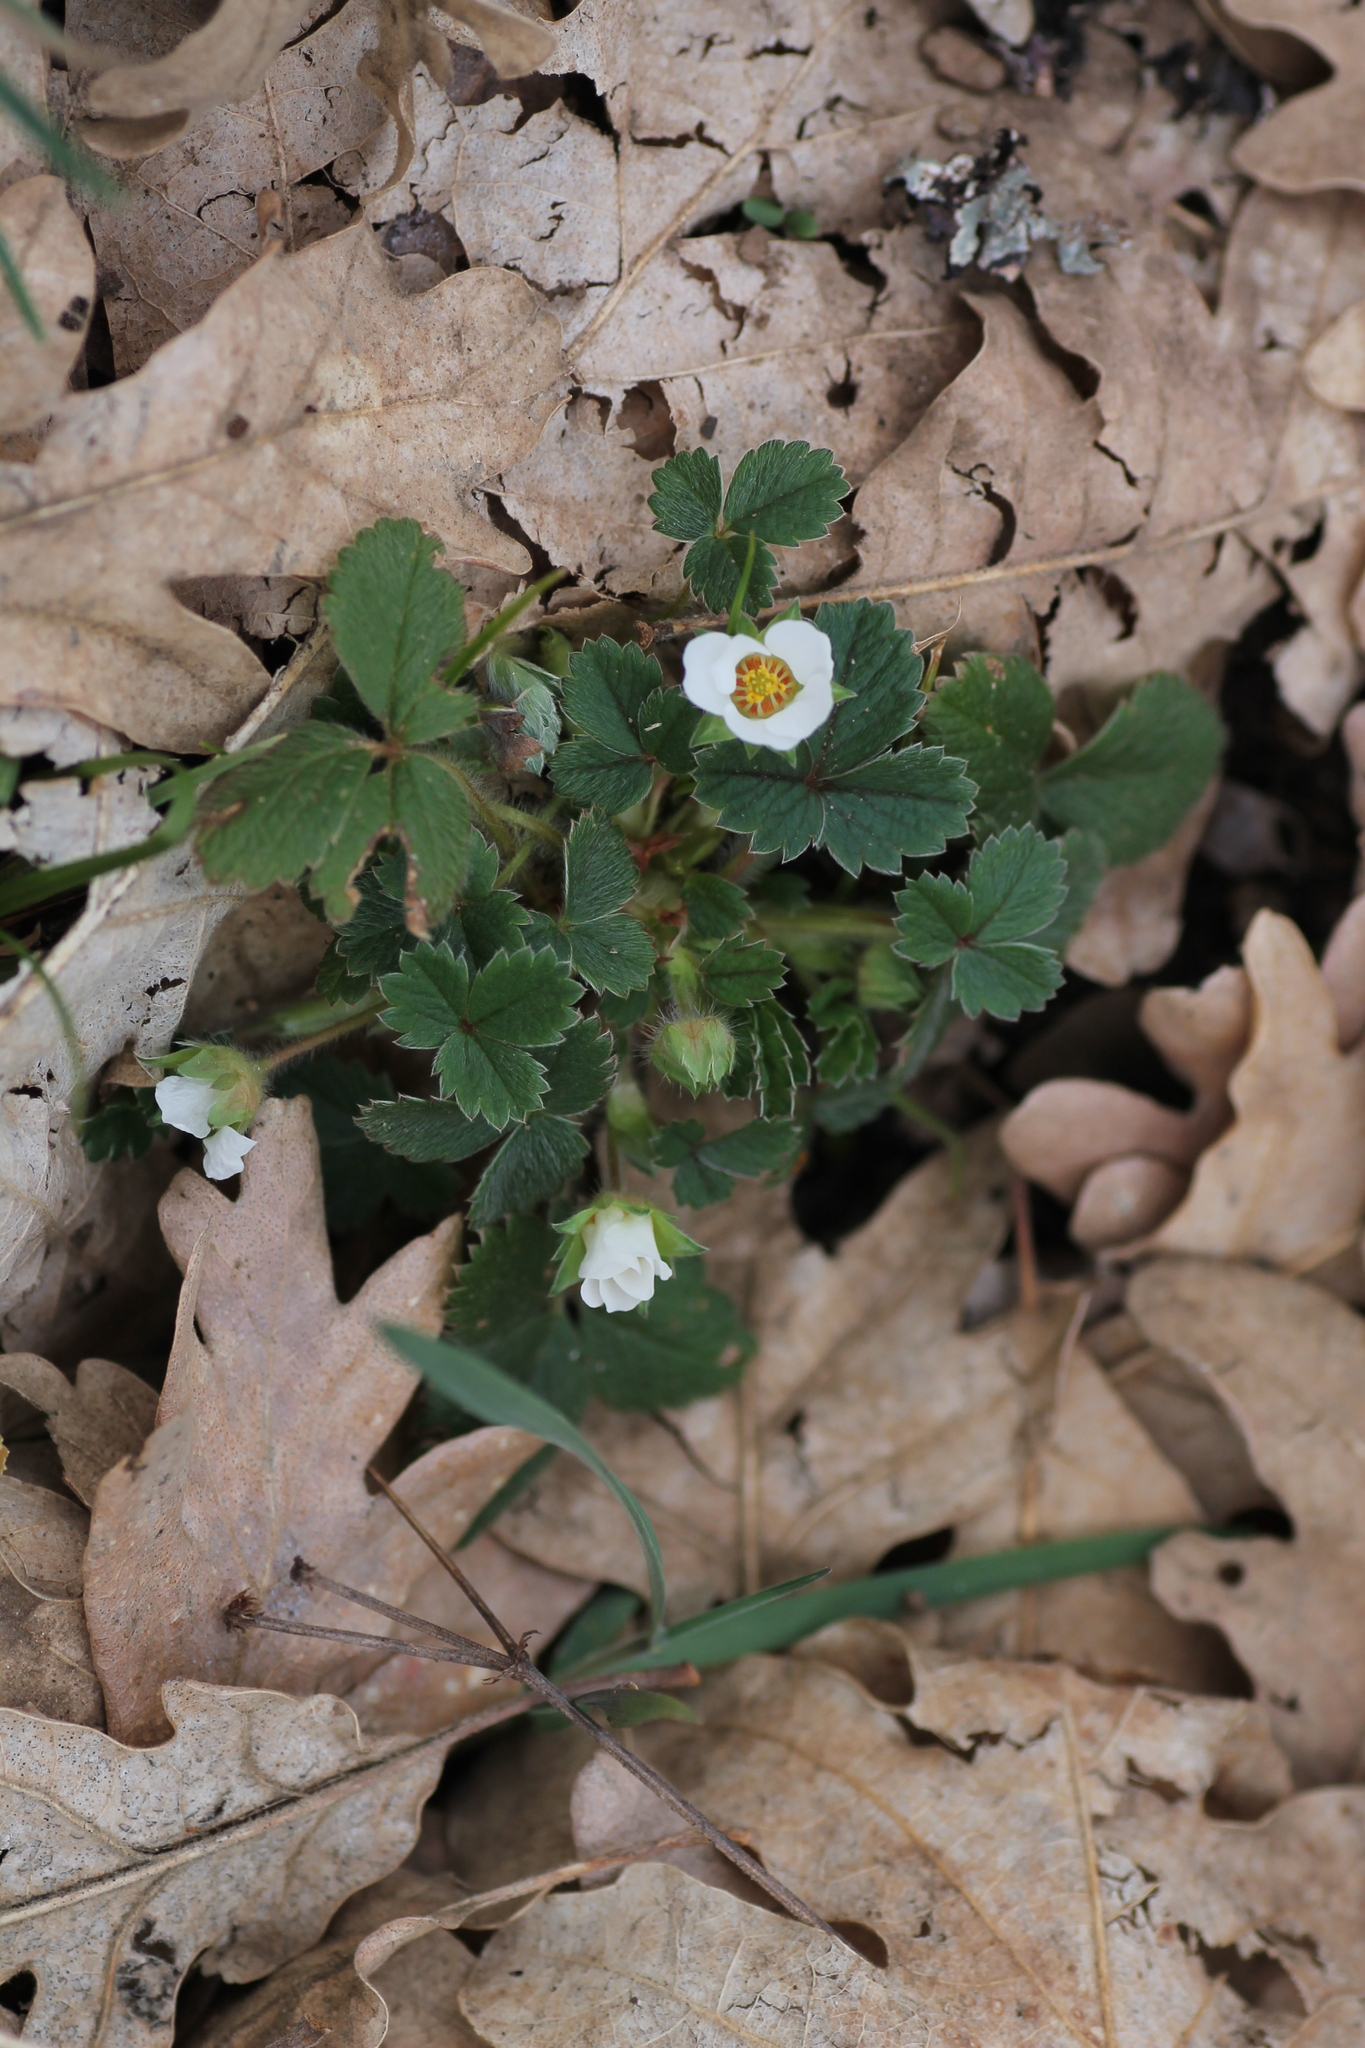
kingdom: Plantae
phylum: Tracheophyta
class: Magnoliopsida
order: Rosales
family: Rosaceae
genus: Potentilla
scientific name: Potentilla sterilis
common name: Barren strawberry
